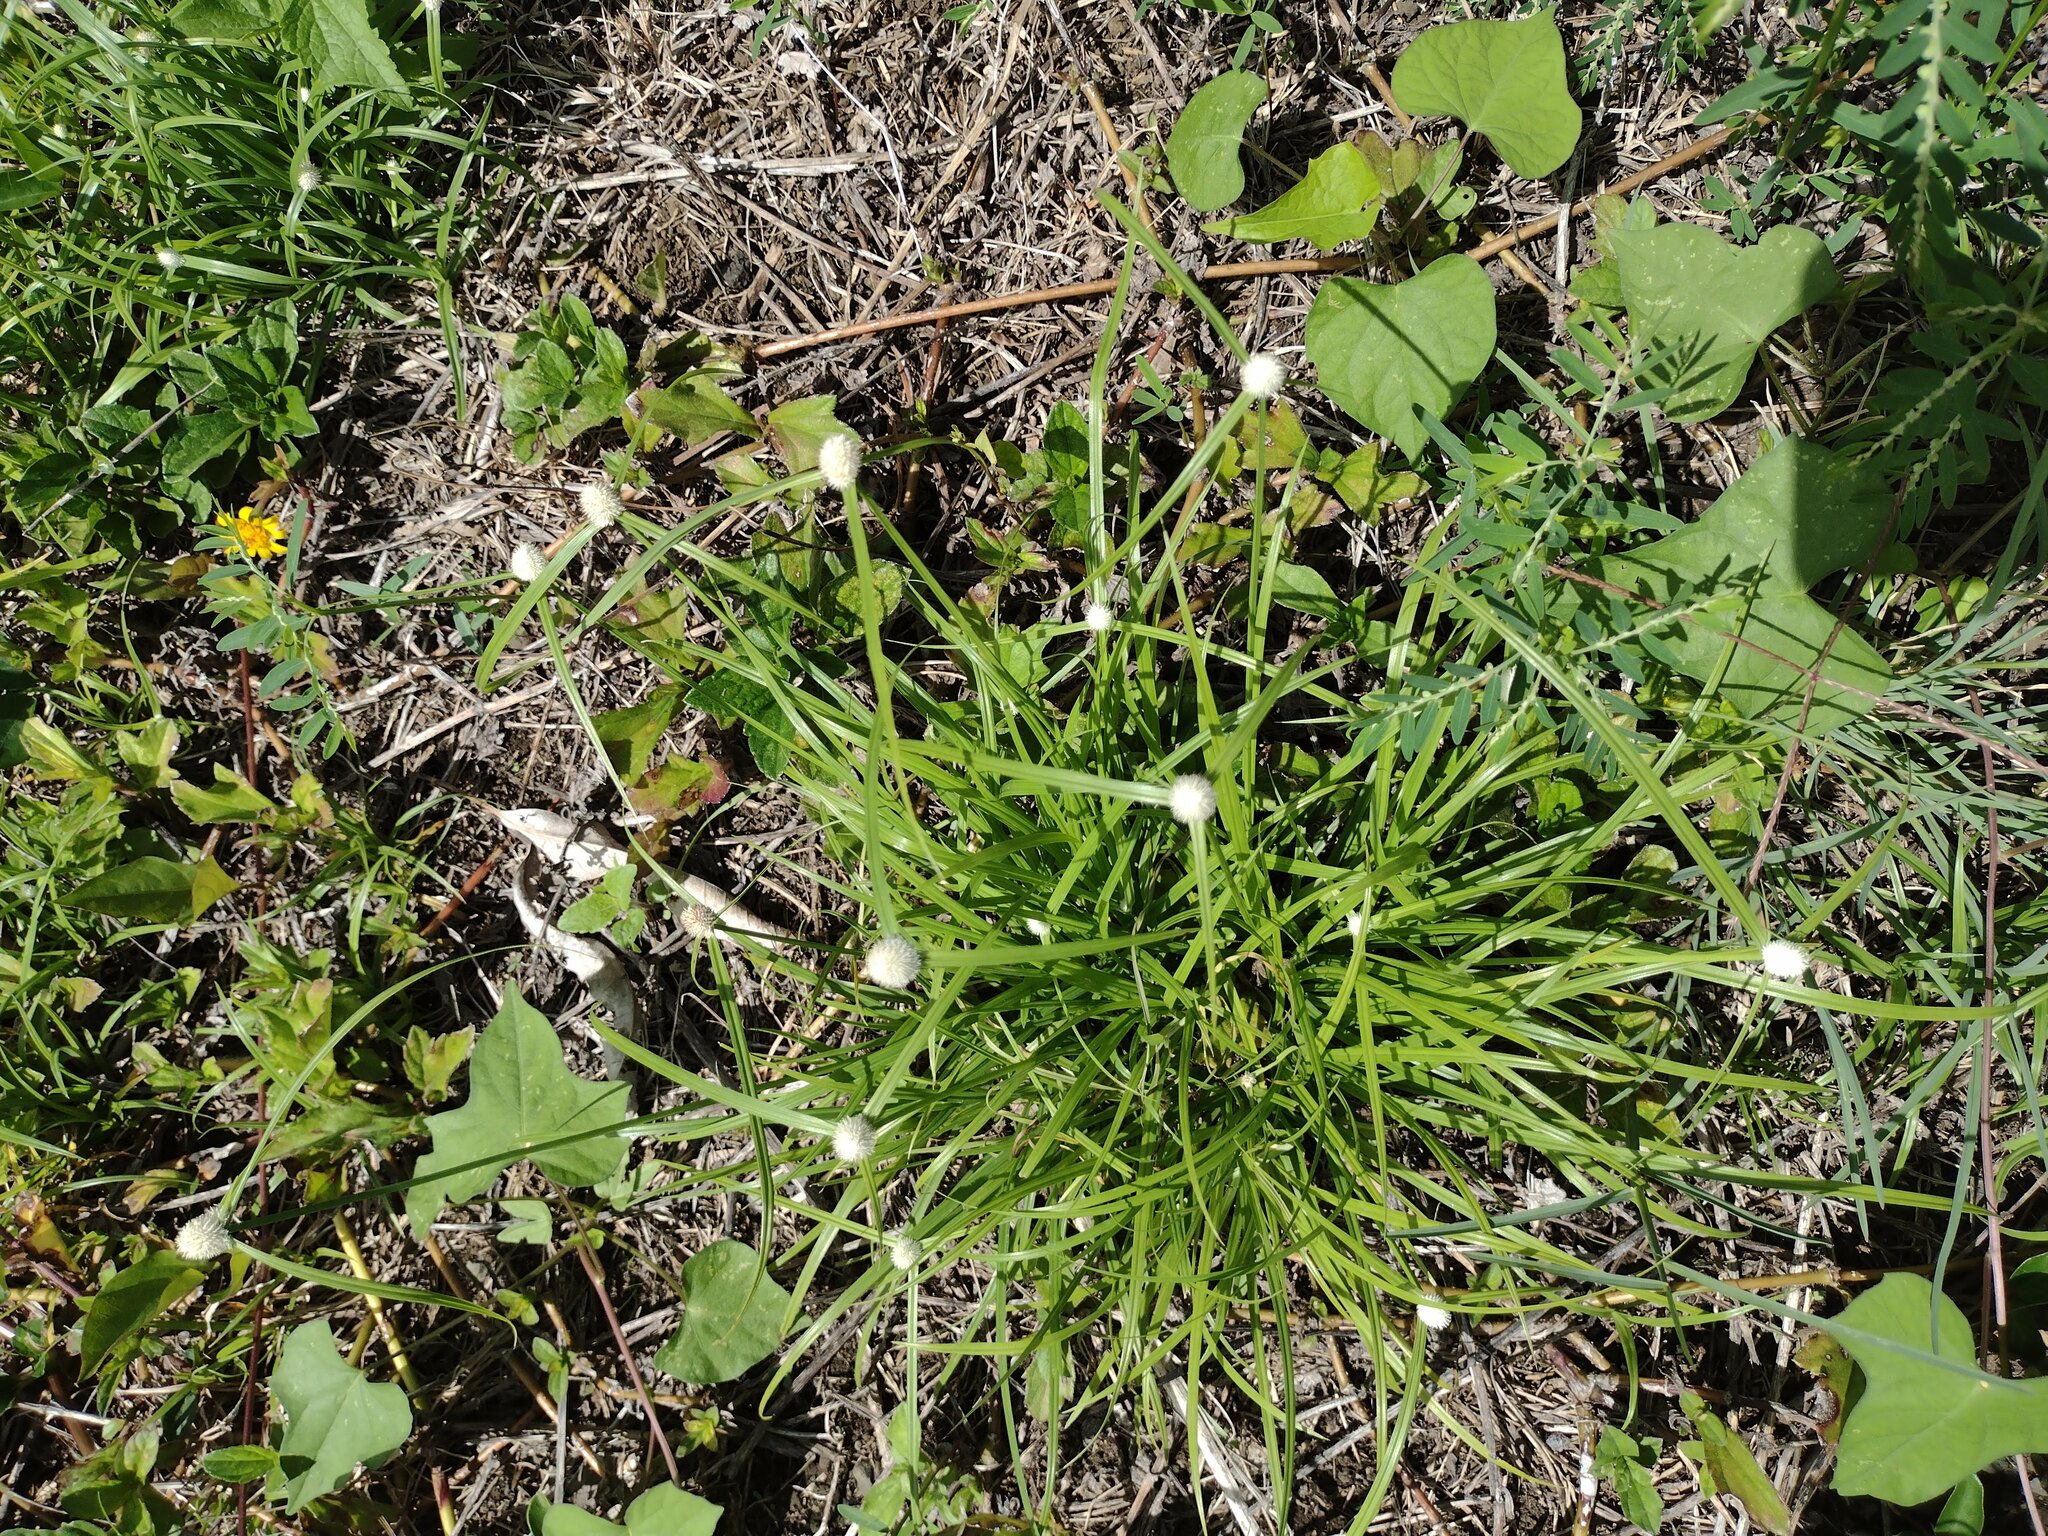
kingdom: Plantae
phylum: Tracheophyta
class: Liliopsida
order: Poales
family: Cyperaceae
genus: Cyperus
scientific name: Cyperus mindorensis
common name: Flatsedge
